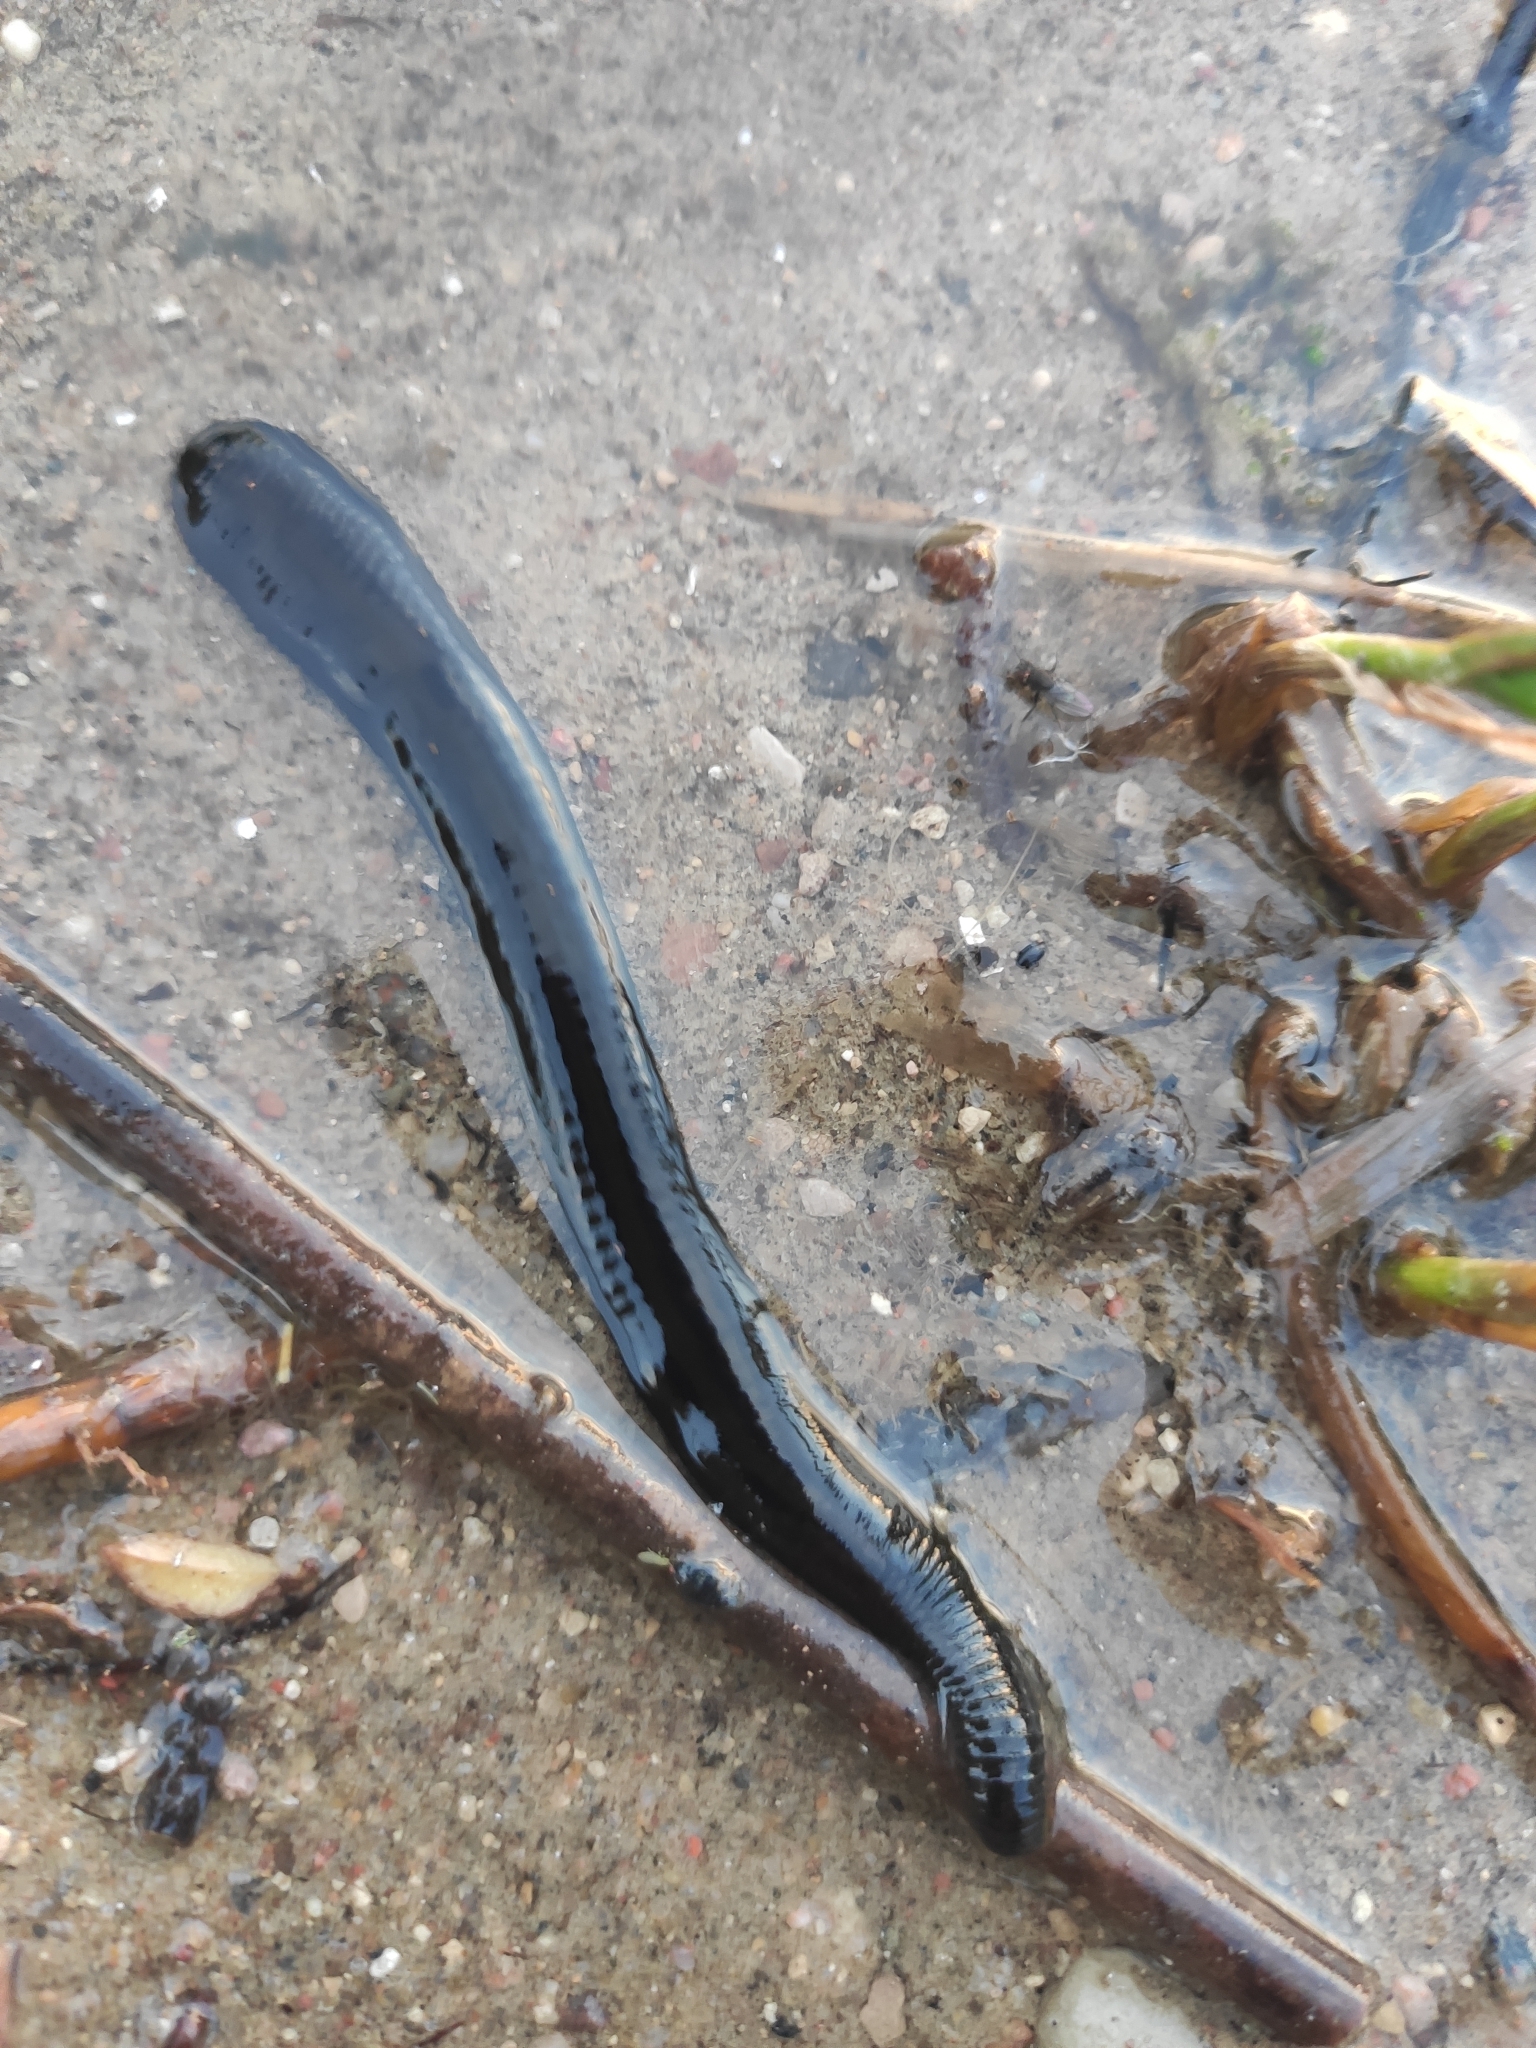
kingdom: Animalia
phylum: Annelida
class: Clitellata
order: Arhynchobdellida
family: Haemopidae
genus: Haemopis
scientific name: Haemopis sanguisuga
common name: Horse leech
